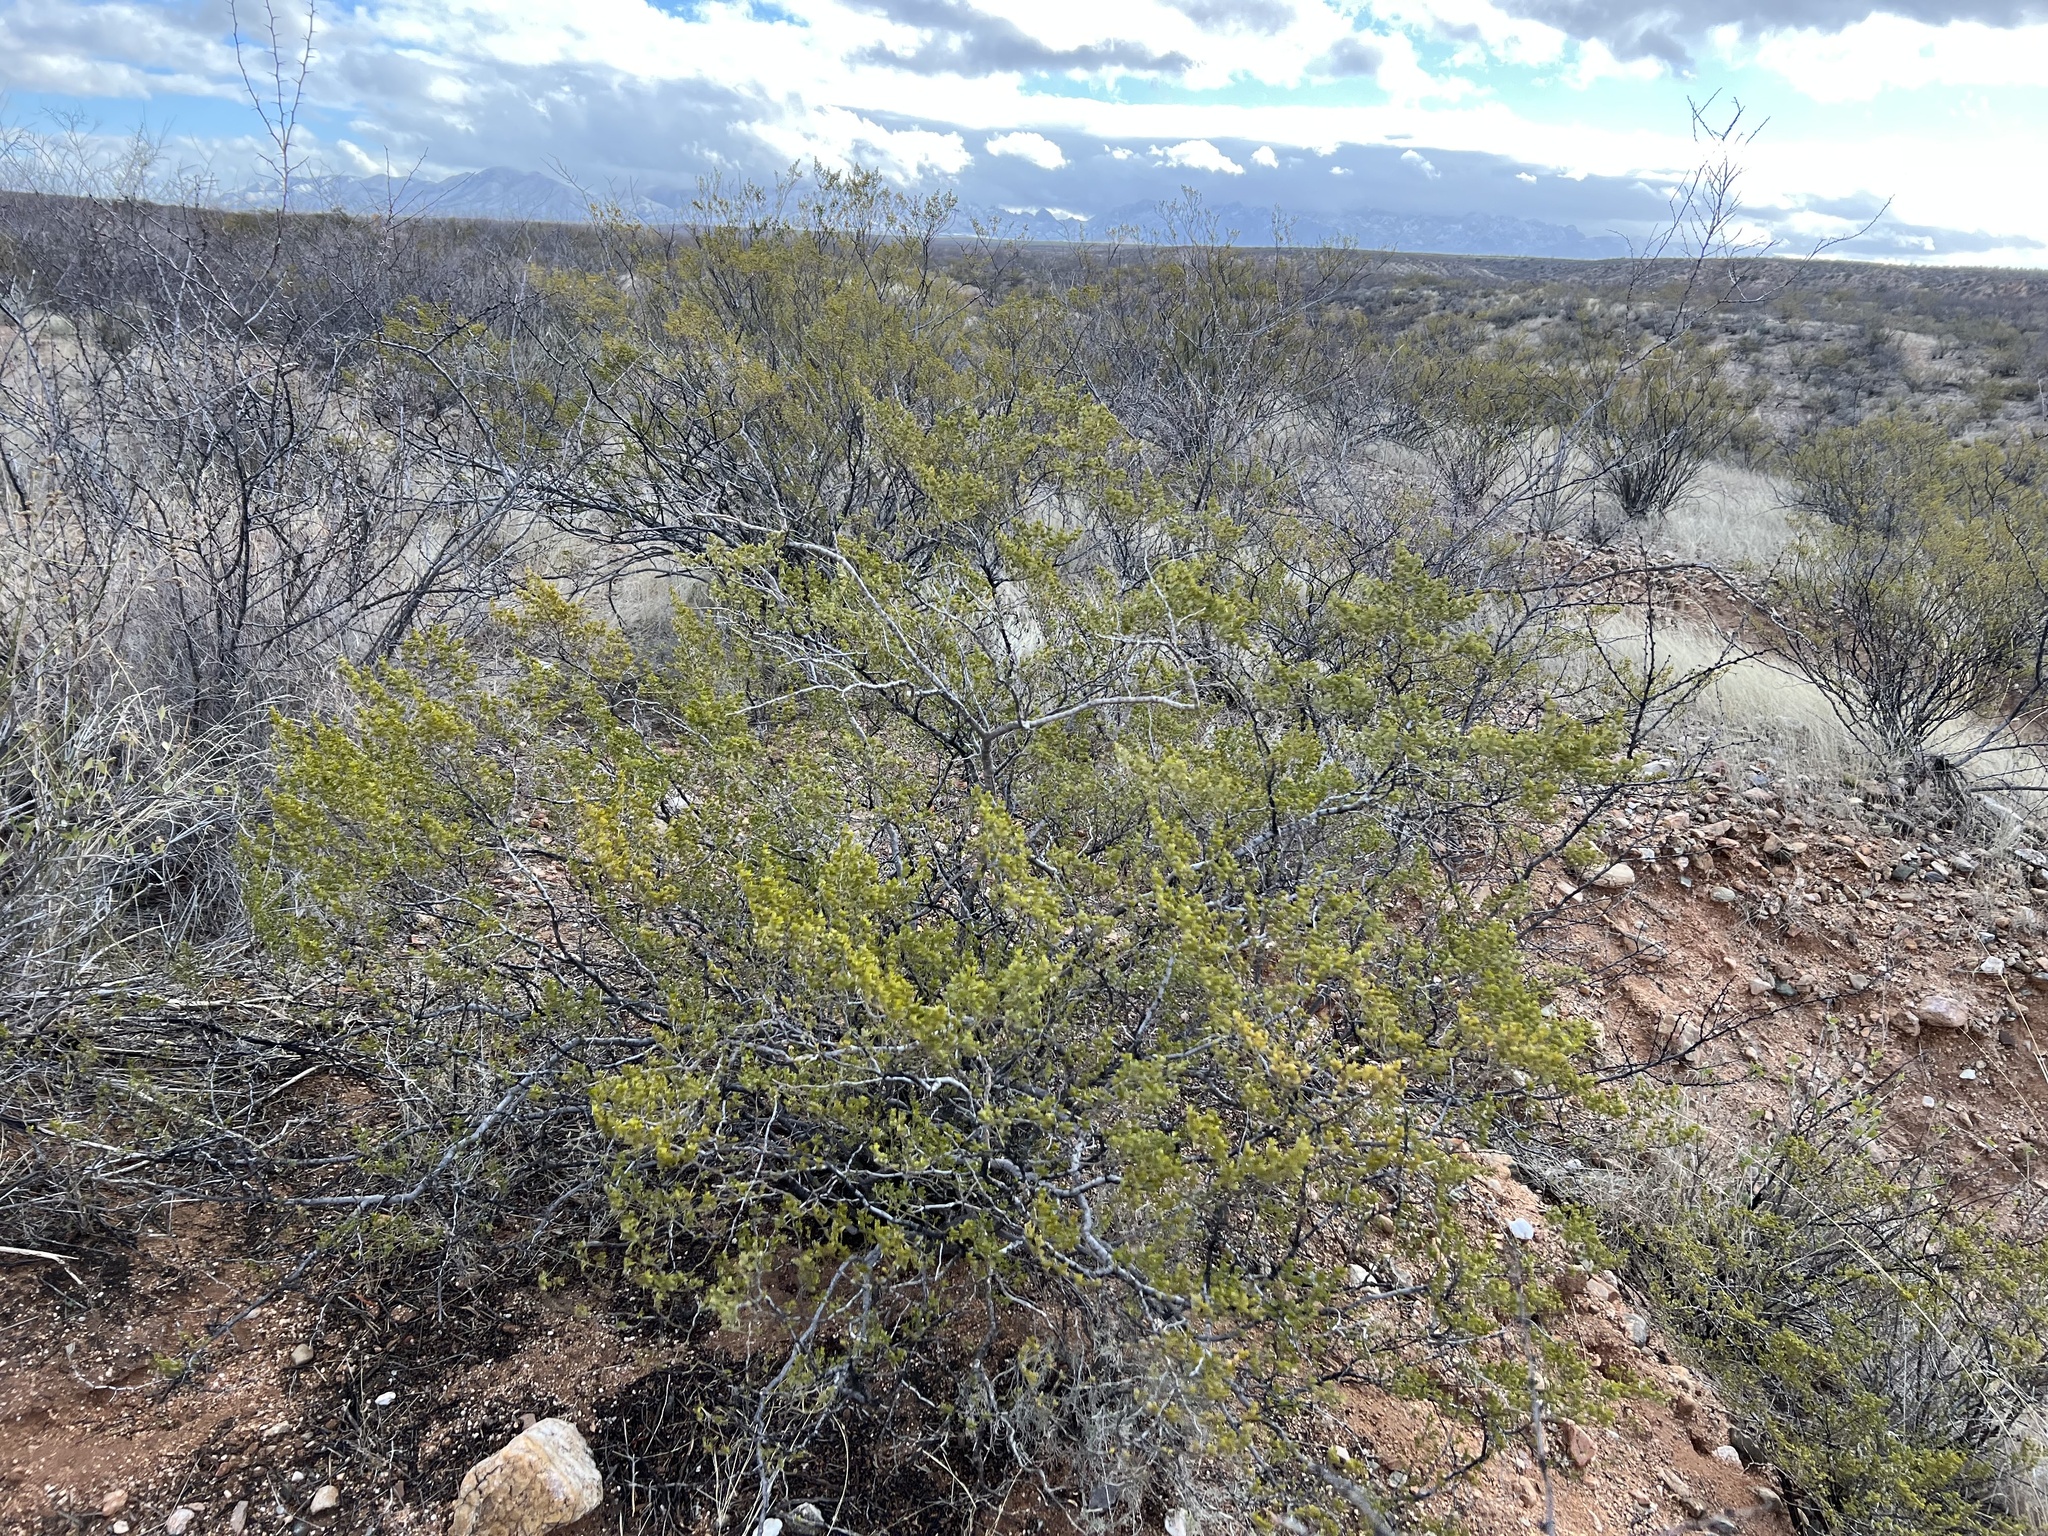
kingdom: Plantae
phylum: Tracheophyta
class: Magnoliopsida
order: Zygophyllales
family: Zygophyllaceae
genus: Larrea
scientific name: Larrea tridentata
